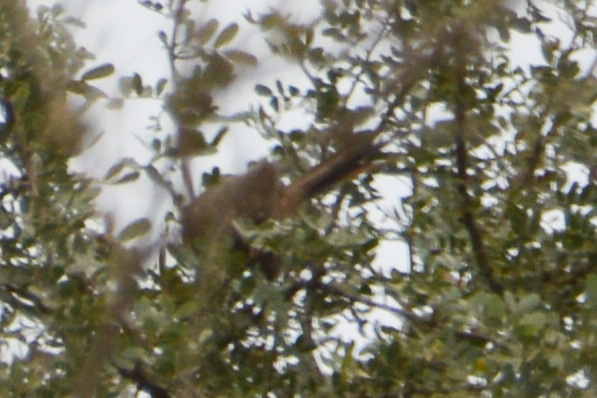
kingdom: Animalia
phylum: Chordata
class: Aves
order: Passeriformes
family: Furnariidae
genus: Leptasthenura
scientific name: Leptasthenura platensis
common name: Tufted tit-spinetail
